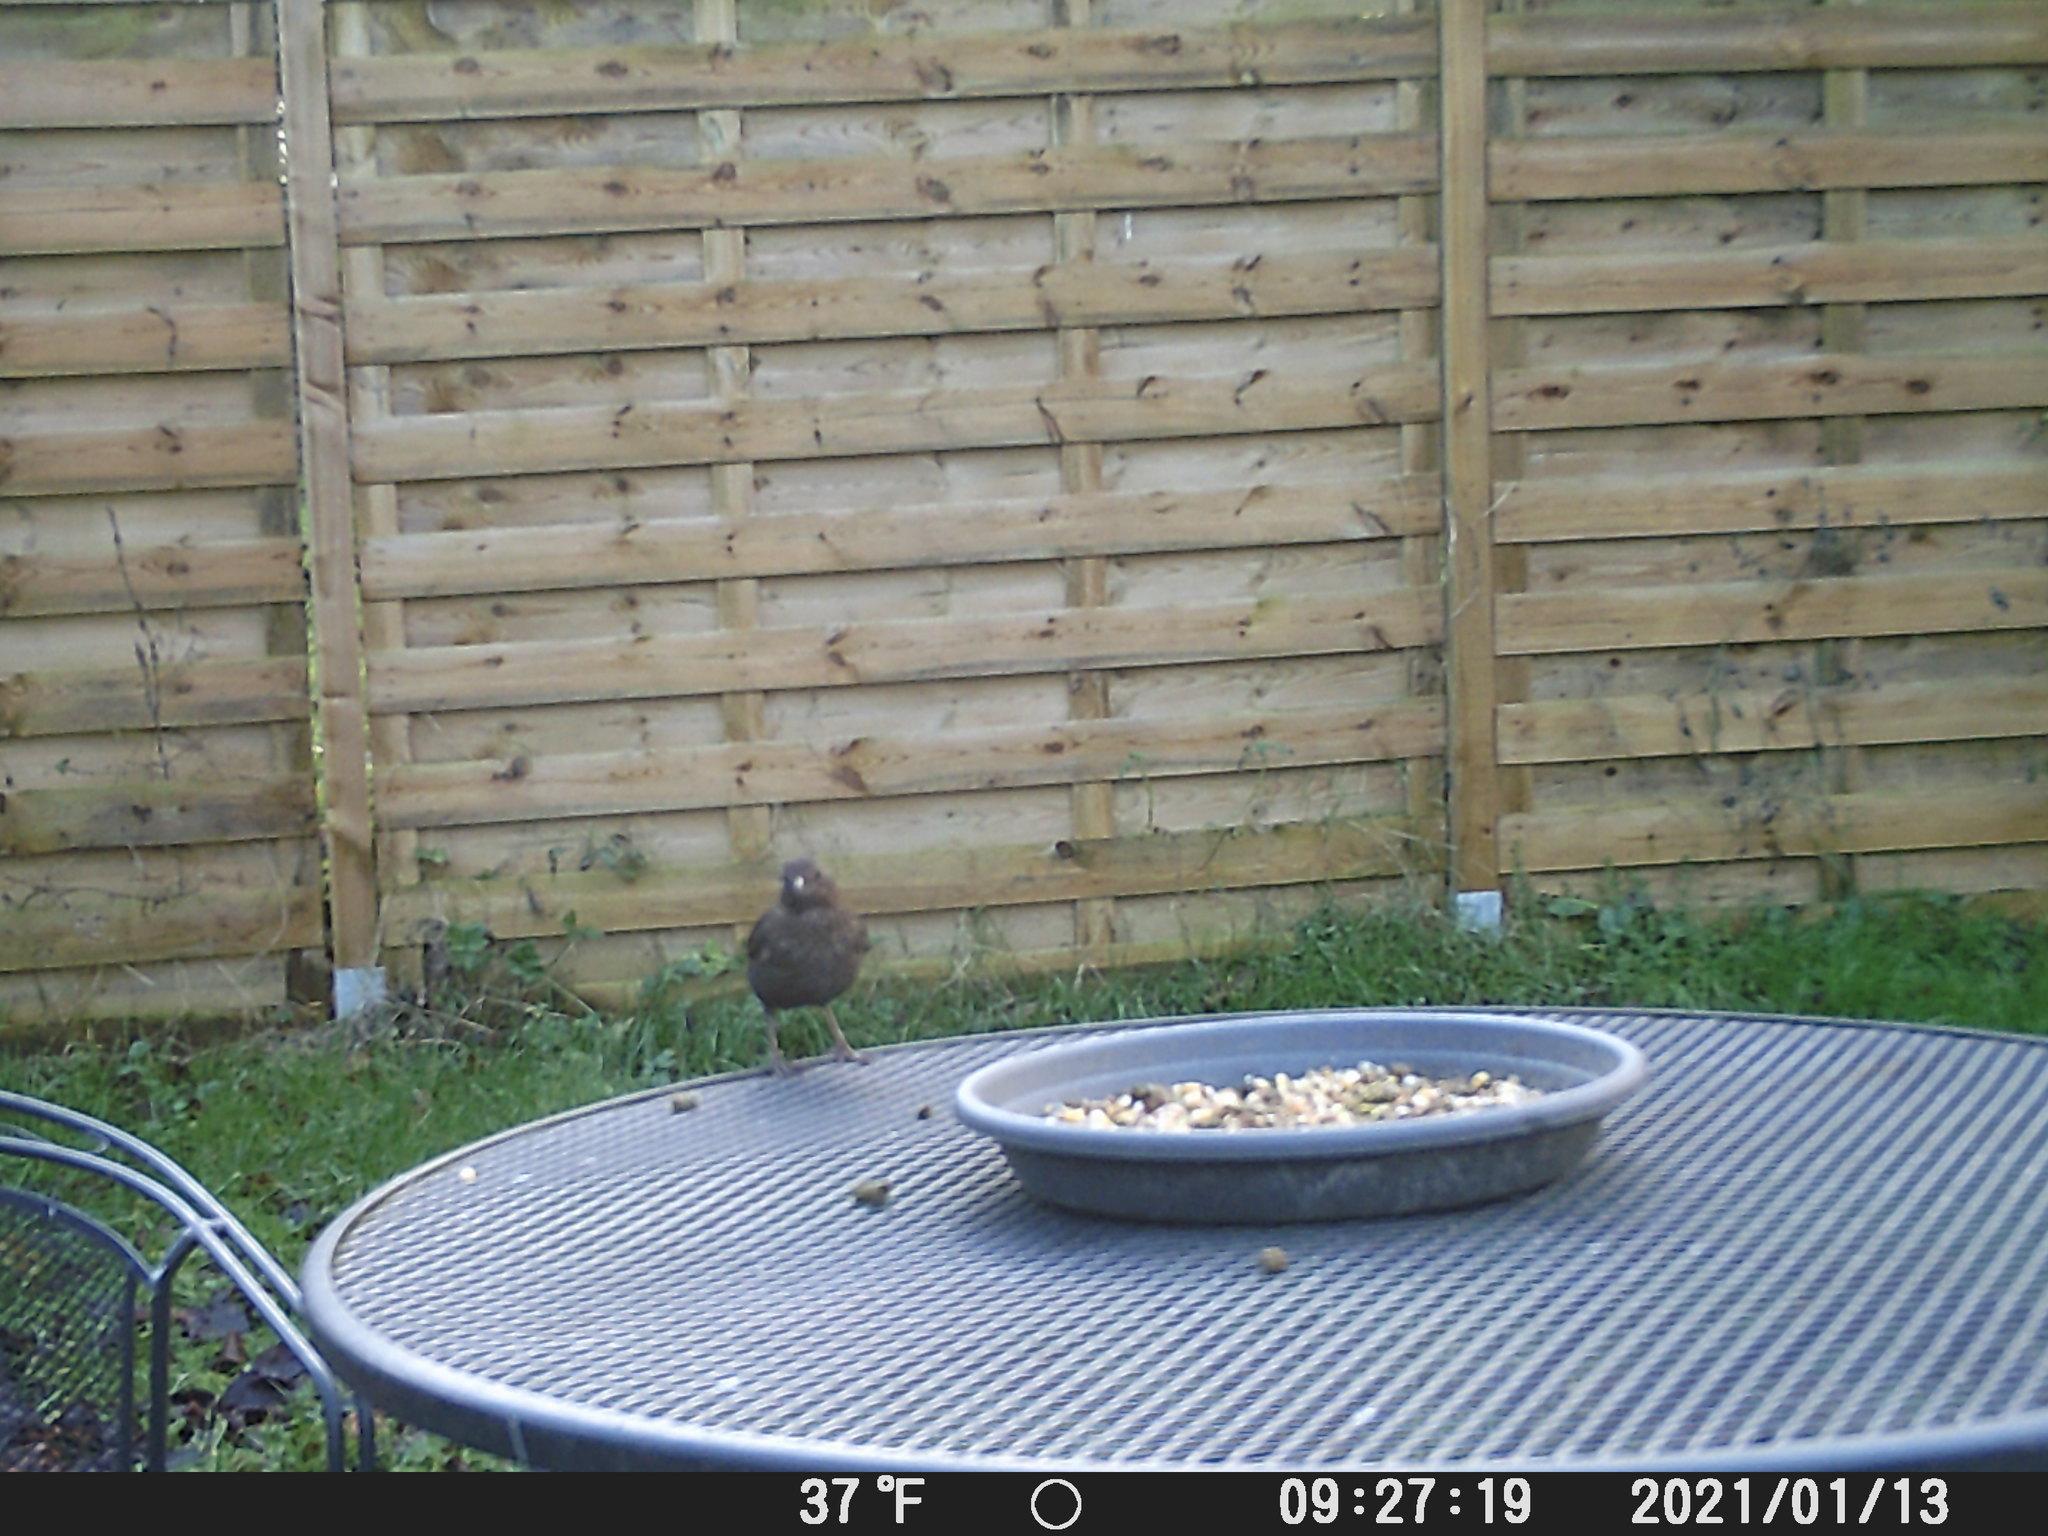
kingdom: Animalia
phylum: Chordata
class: Aves
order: Passeriformes
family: Turdidae
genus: Turdus
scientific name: Turdus merula
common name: Common blackbird
